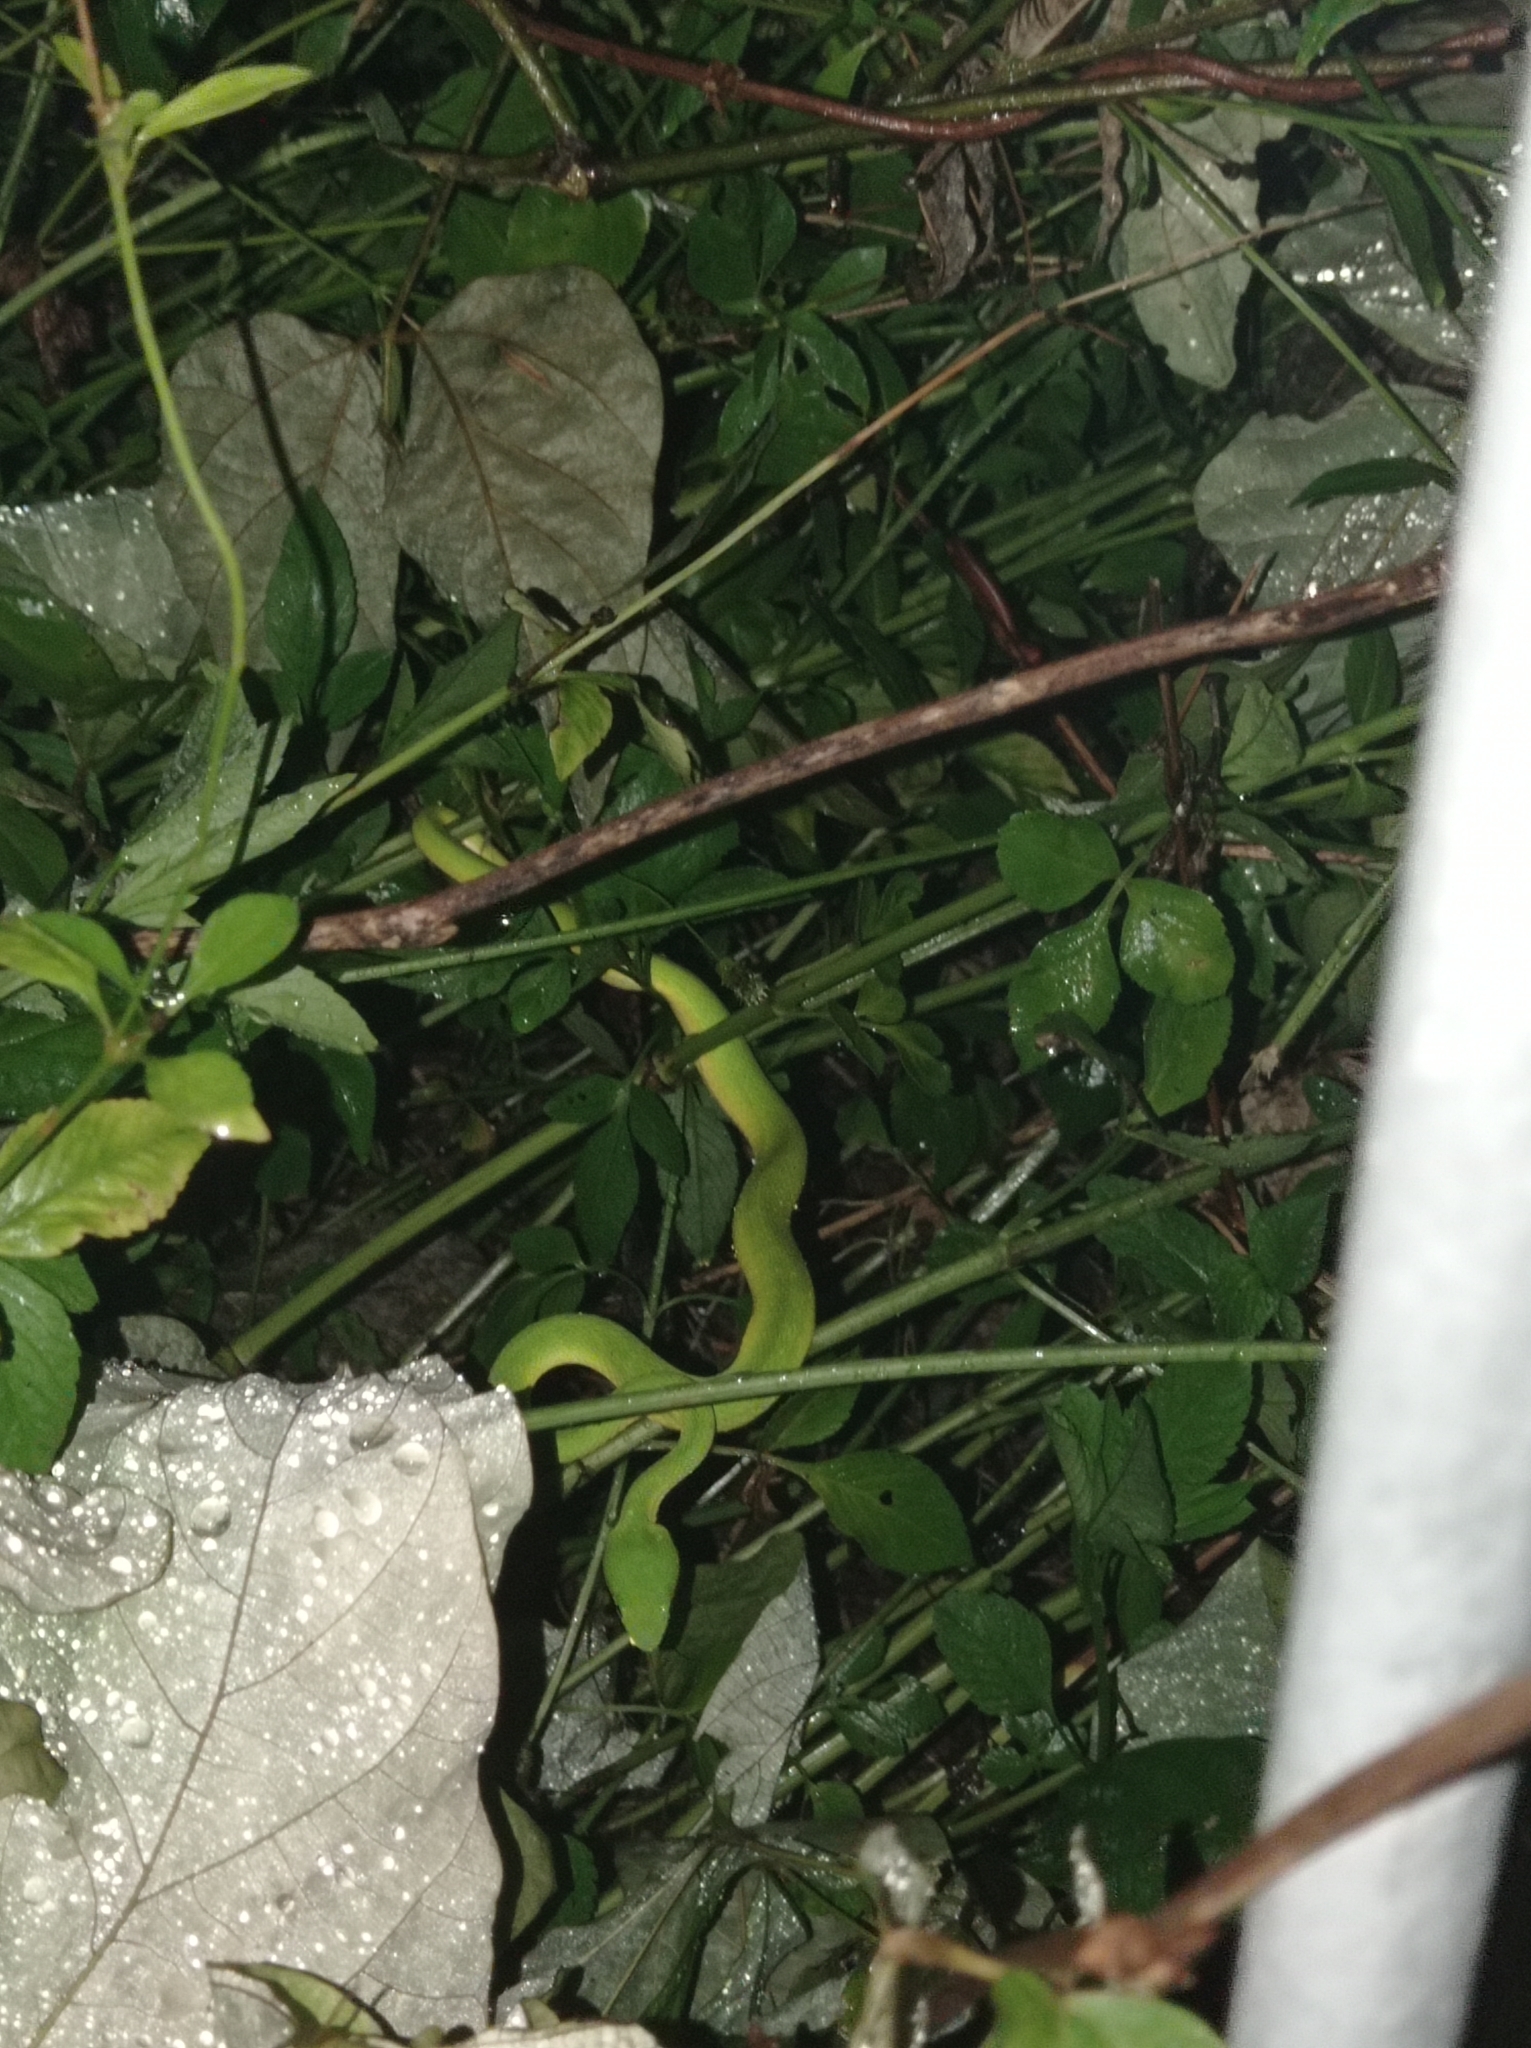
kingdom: Animalia
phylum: Chordata
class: Squamata
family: Viperidae
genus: Trimeresurus
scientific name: Trimeresurus albolabris
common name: White-lipped pitviper
